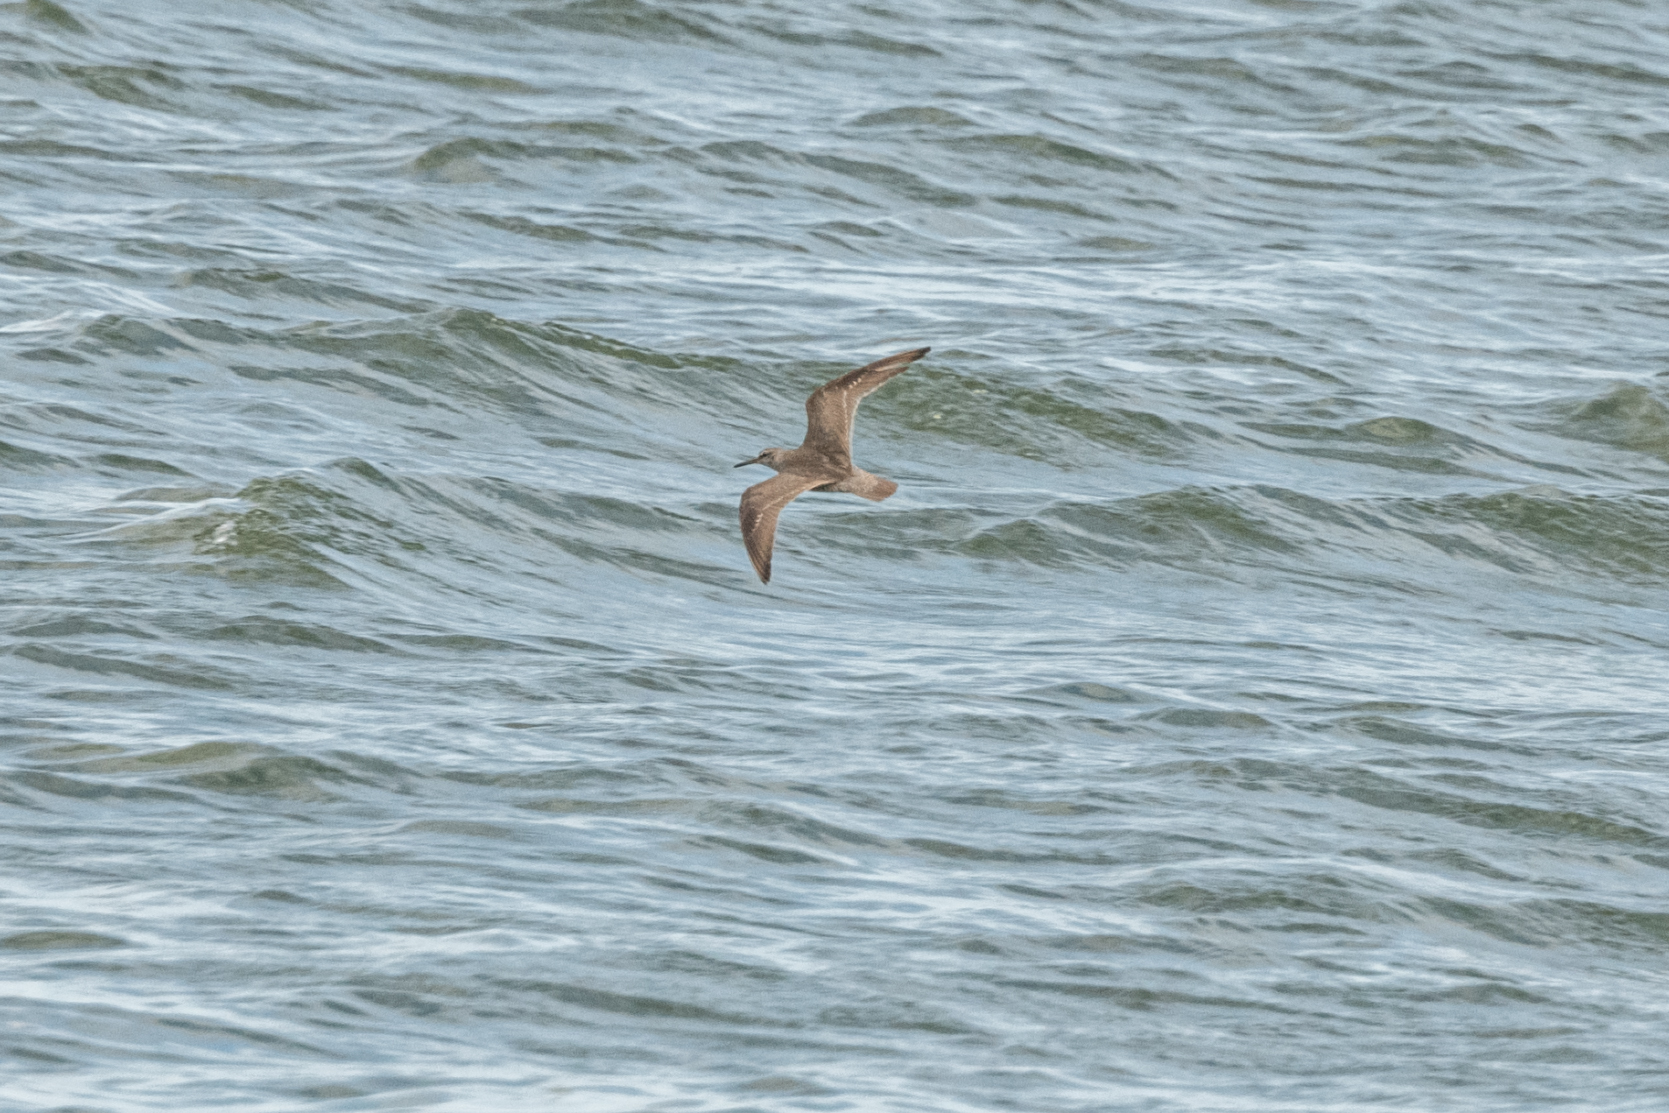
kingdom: Animalia
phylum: Chordata
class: Aves
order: Charadriiformes
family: Scolopacidae
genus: Tringa
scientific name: Tringa brevipes
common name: Grey-tailed tattler
